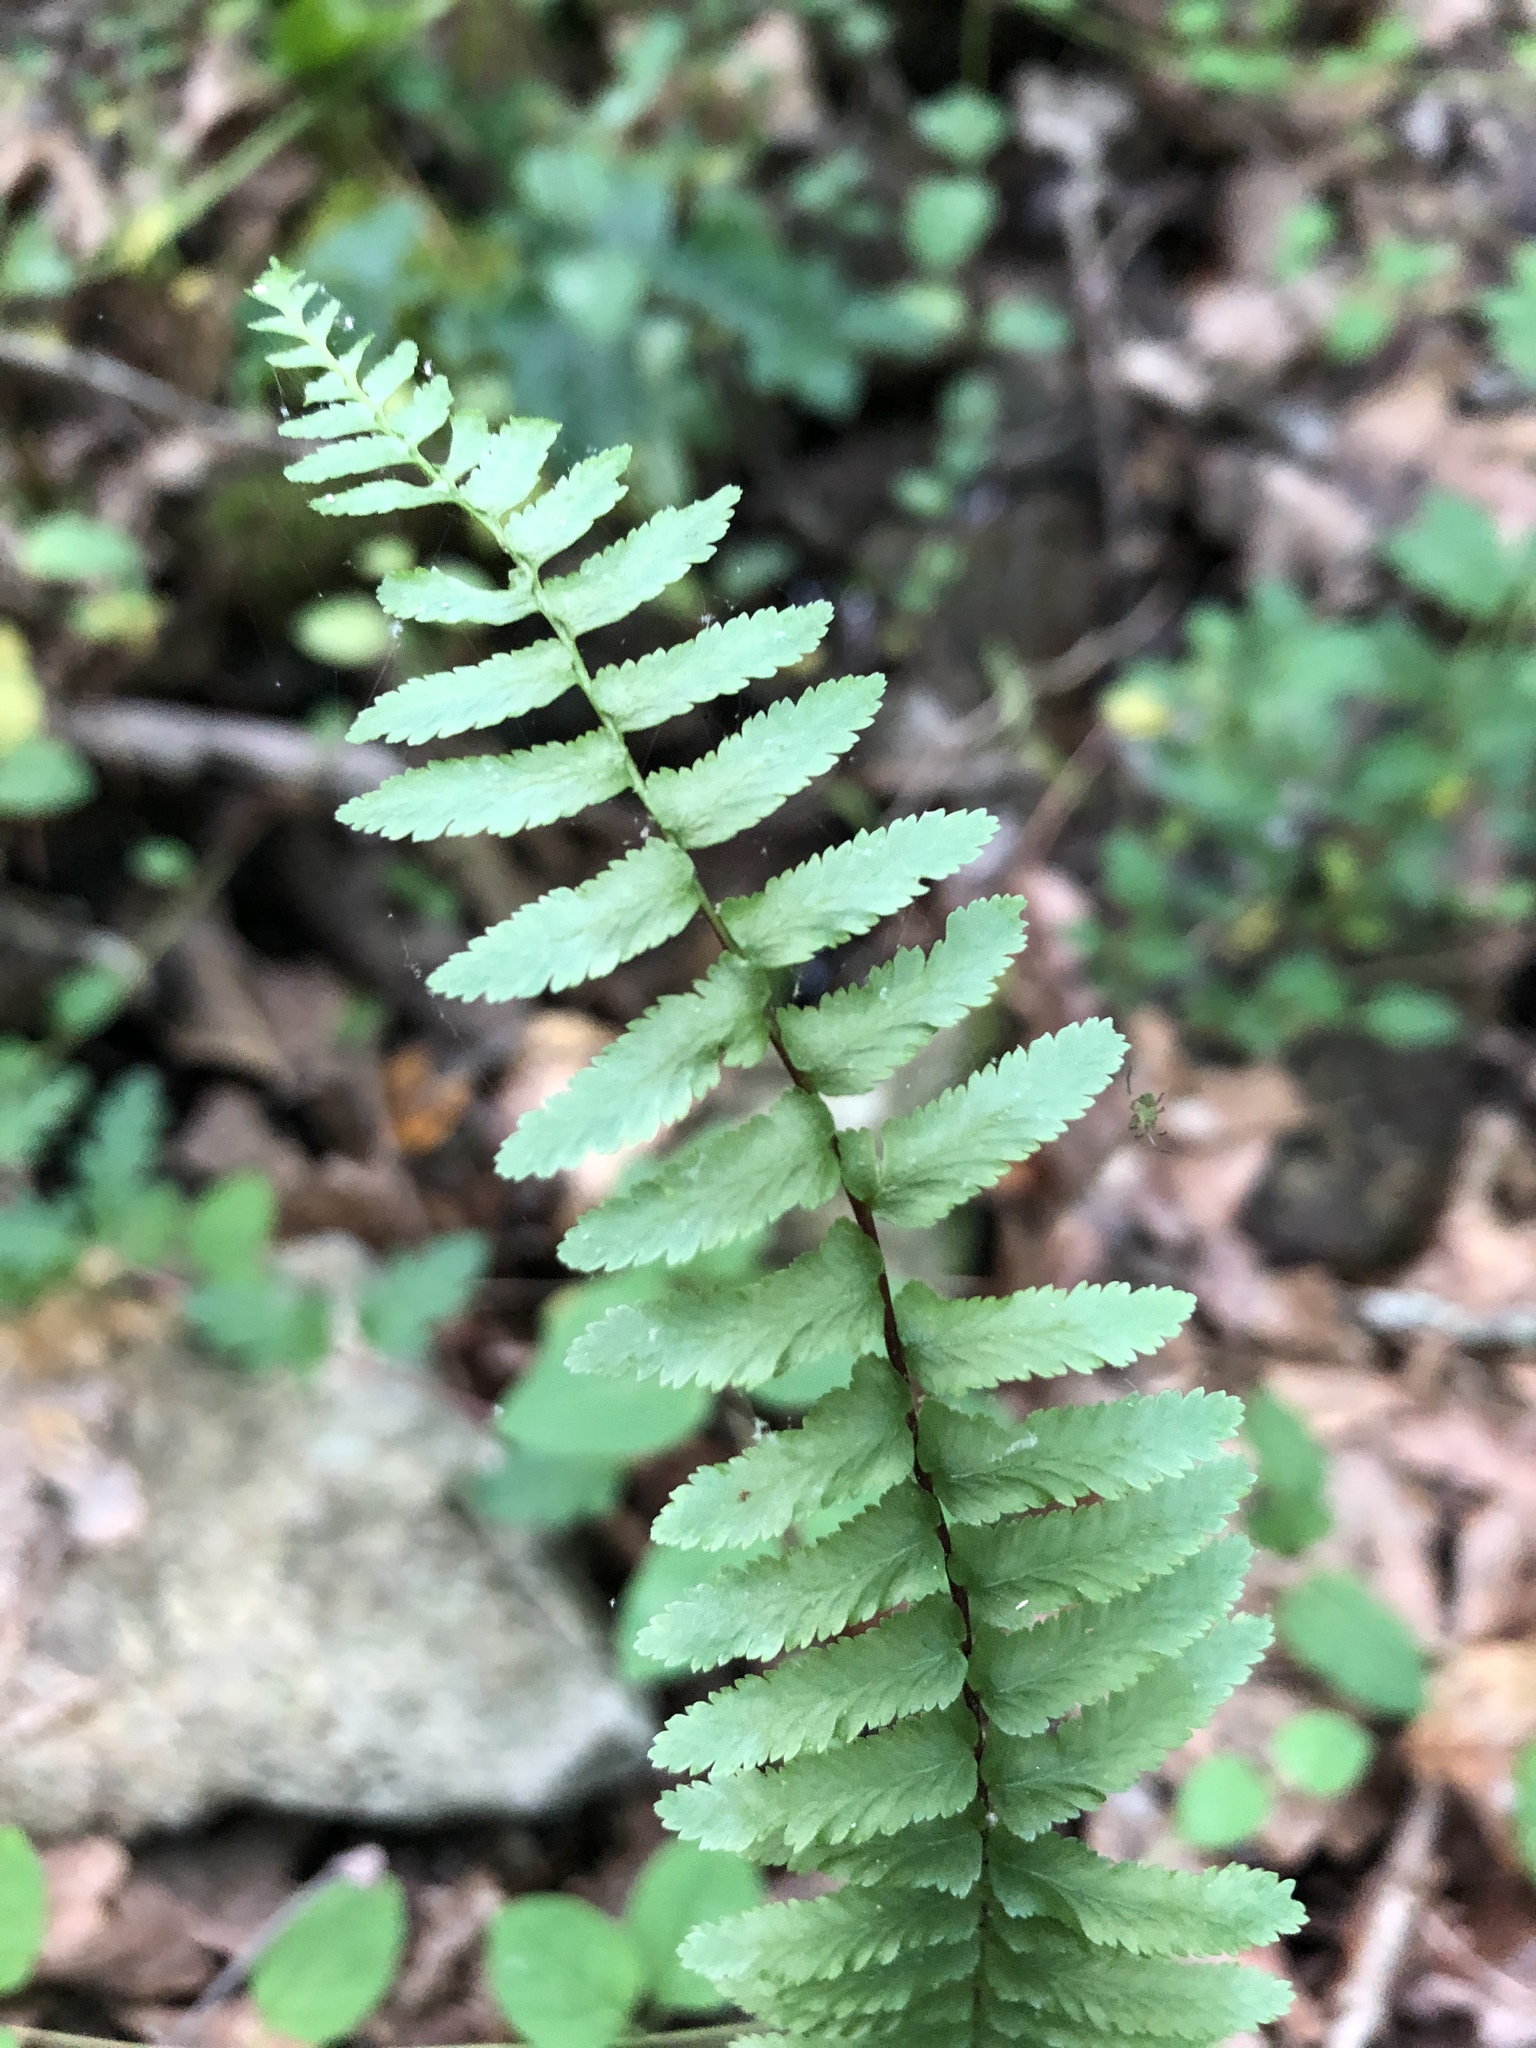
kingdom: Plantae
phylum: Tracheophyta
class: Polypodiopsida
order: Polypodiales
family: Aspleniaceae
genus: Asplenium
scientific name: Asplenium platyneuron
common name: Ebony spleenwort
